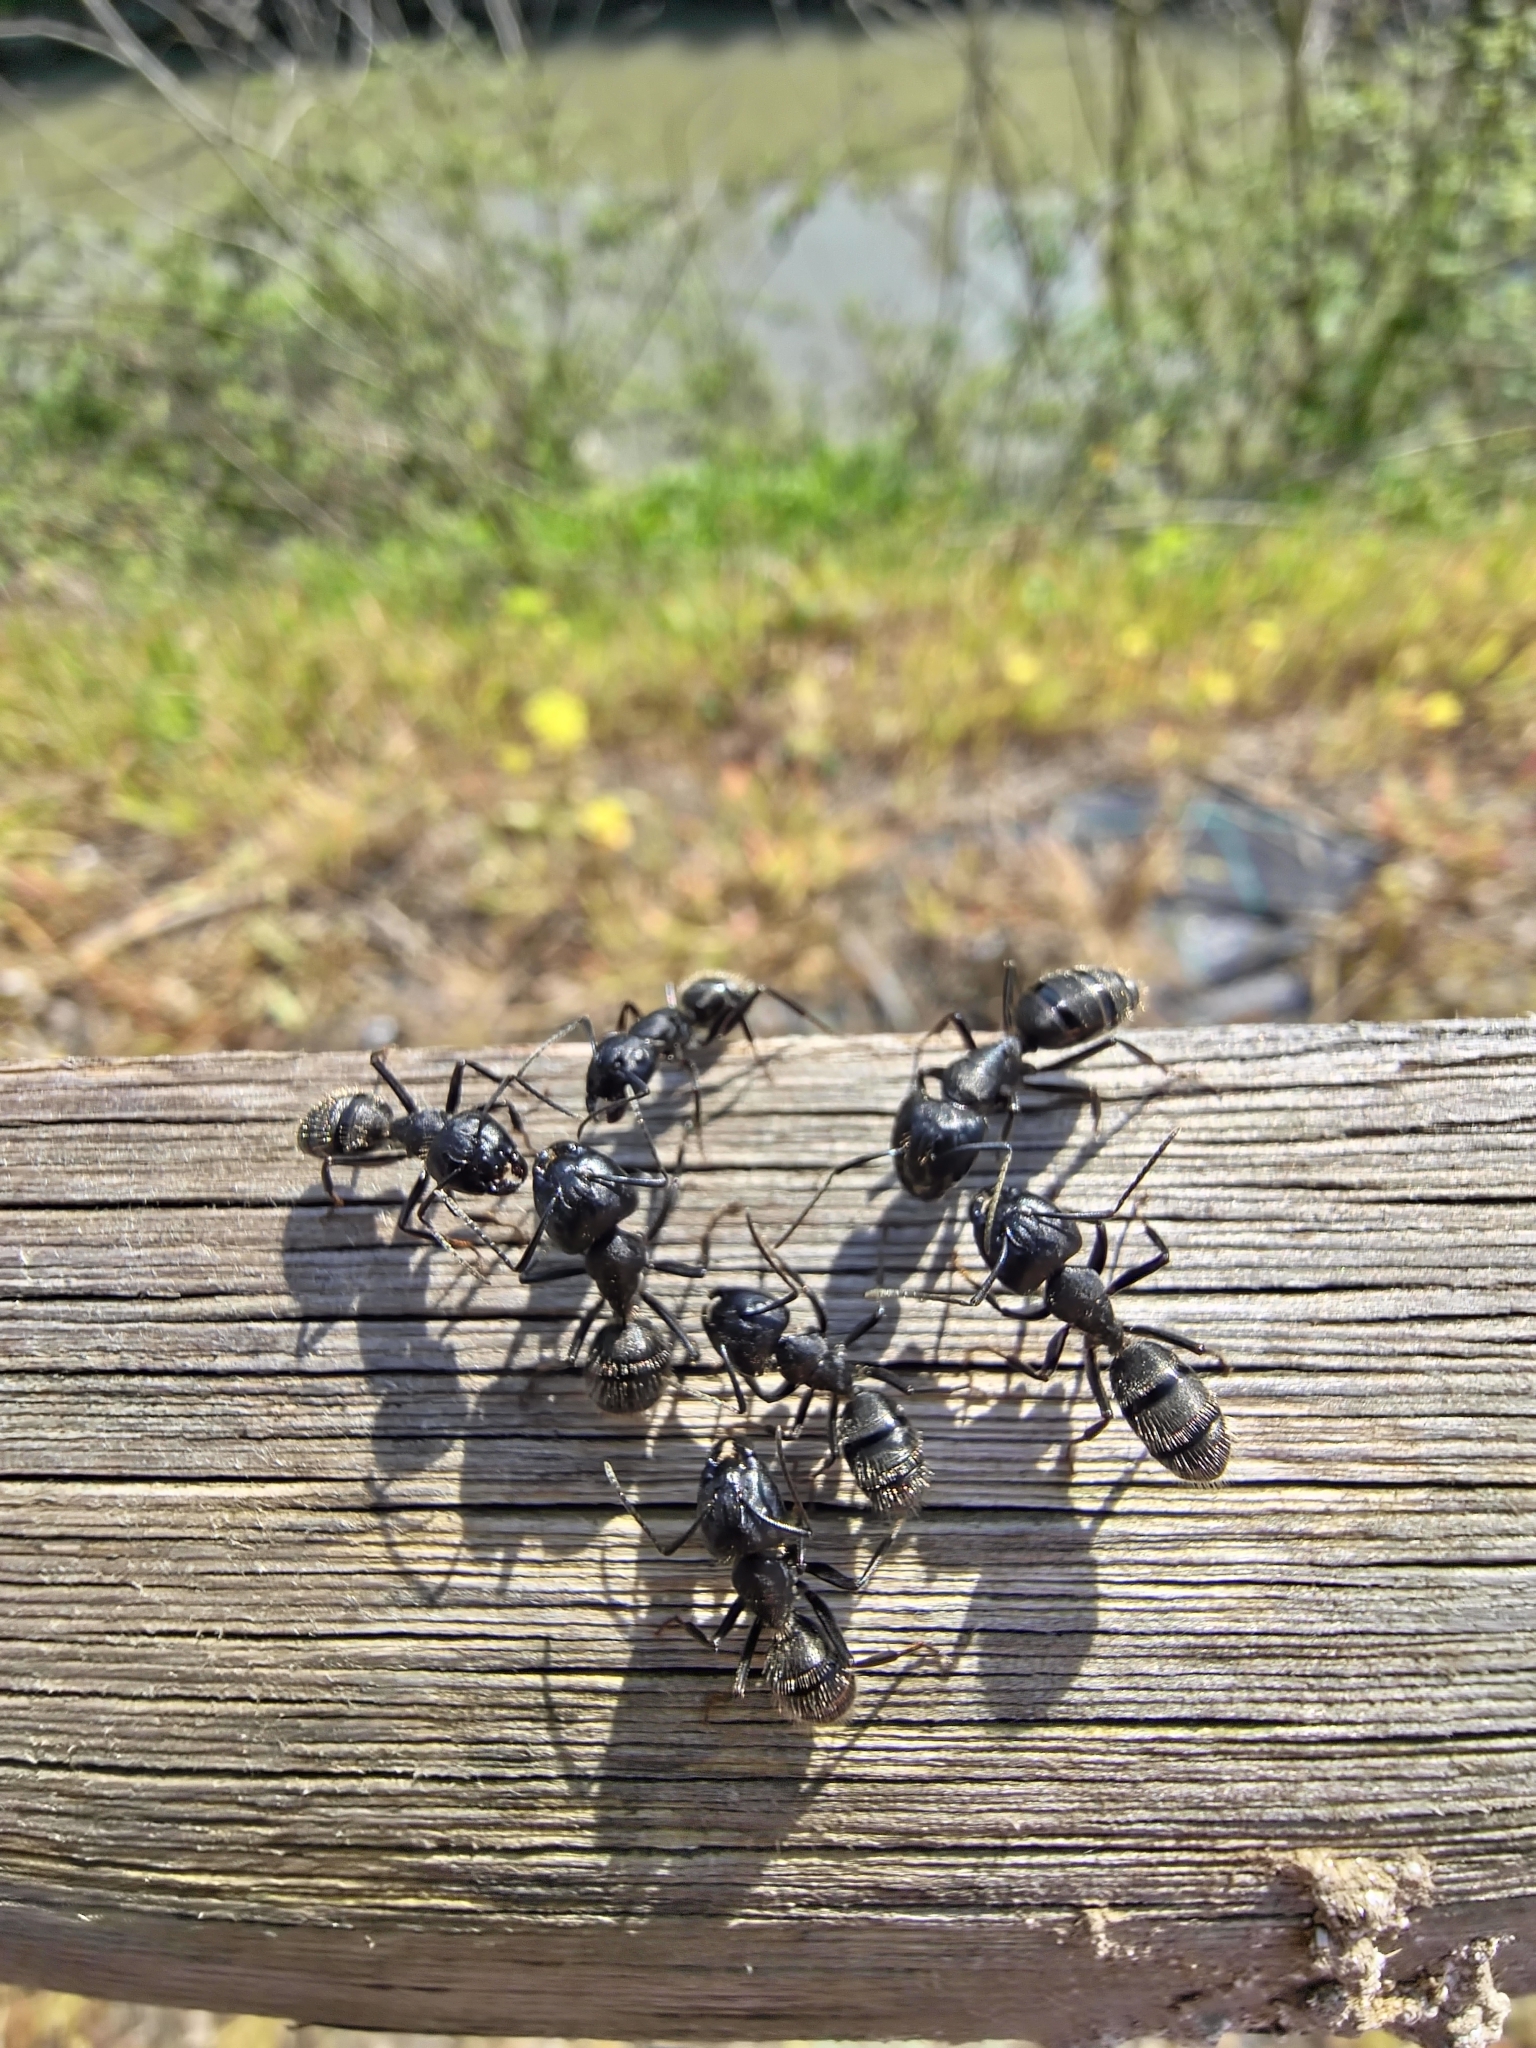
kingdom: Animalia
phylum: Arthropoda
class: Insecta
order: Hymenoptera
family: Formicidae
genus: Camponotus
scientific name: Camponotus vagus
